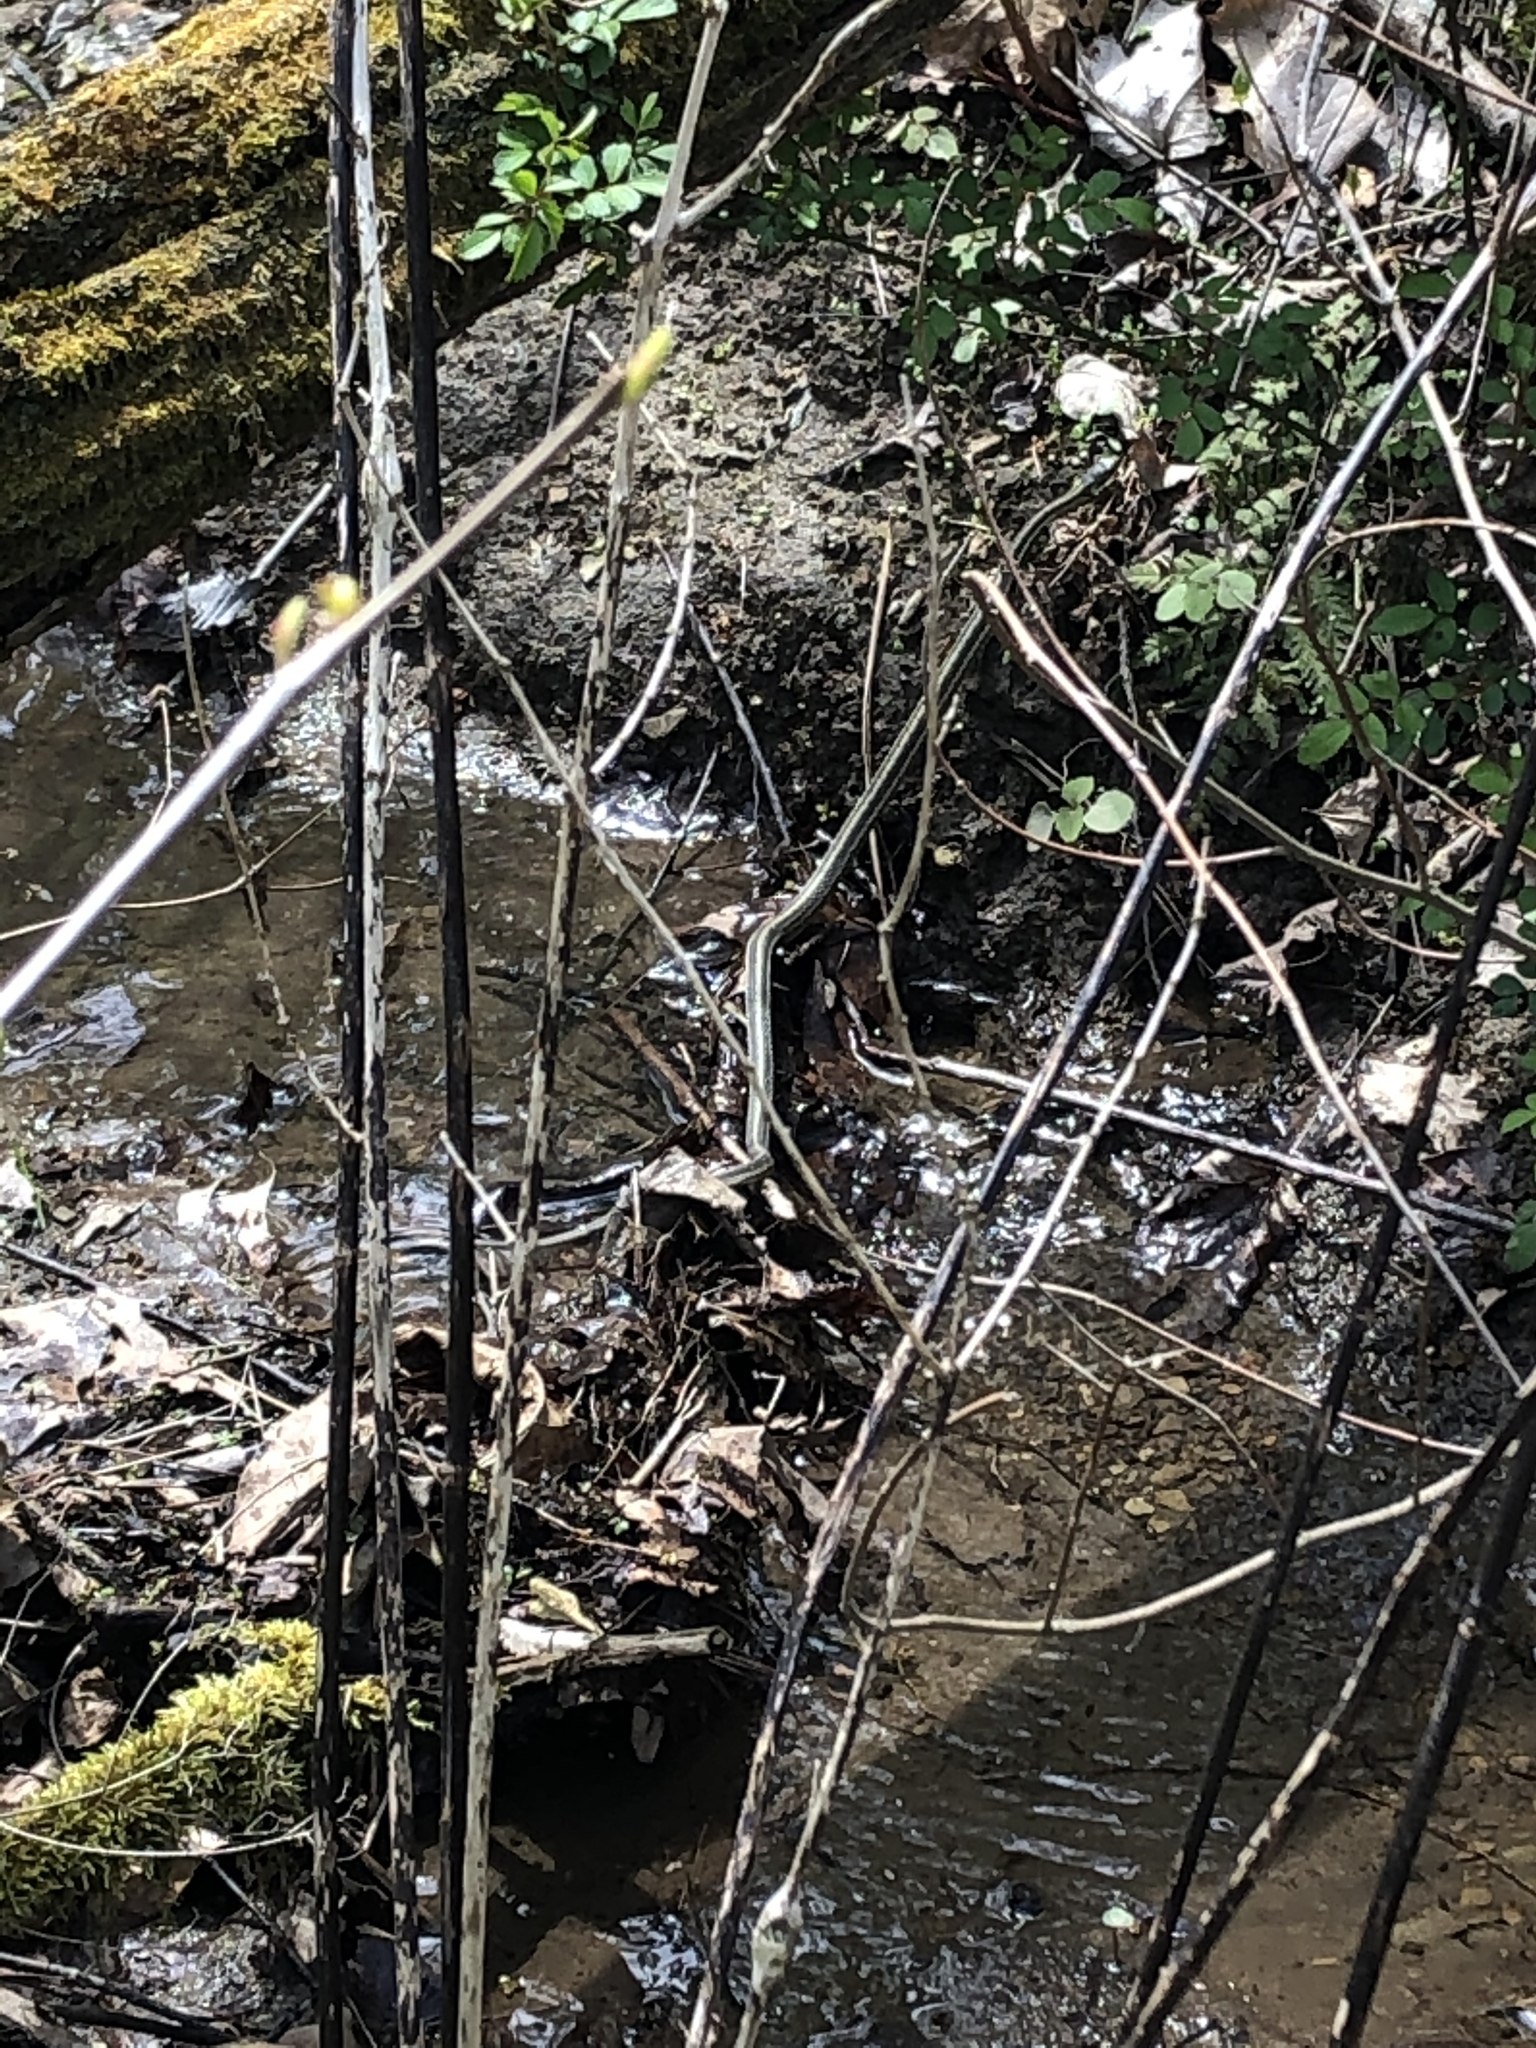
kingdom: Animalia
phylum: Chordata
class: Squamata
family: Colubridae
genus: Thamnophis
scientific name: Thamnophis sirtalis
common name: Common garter snake
